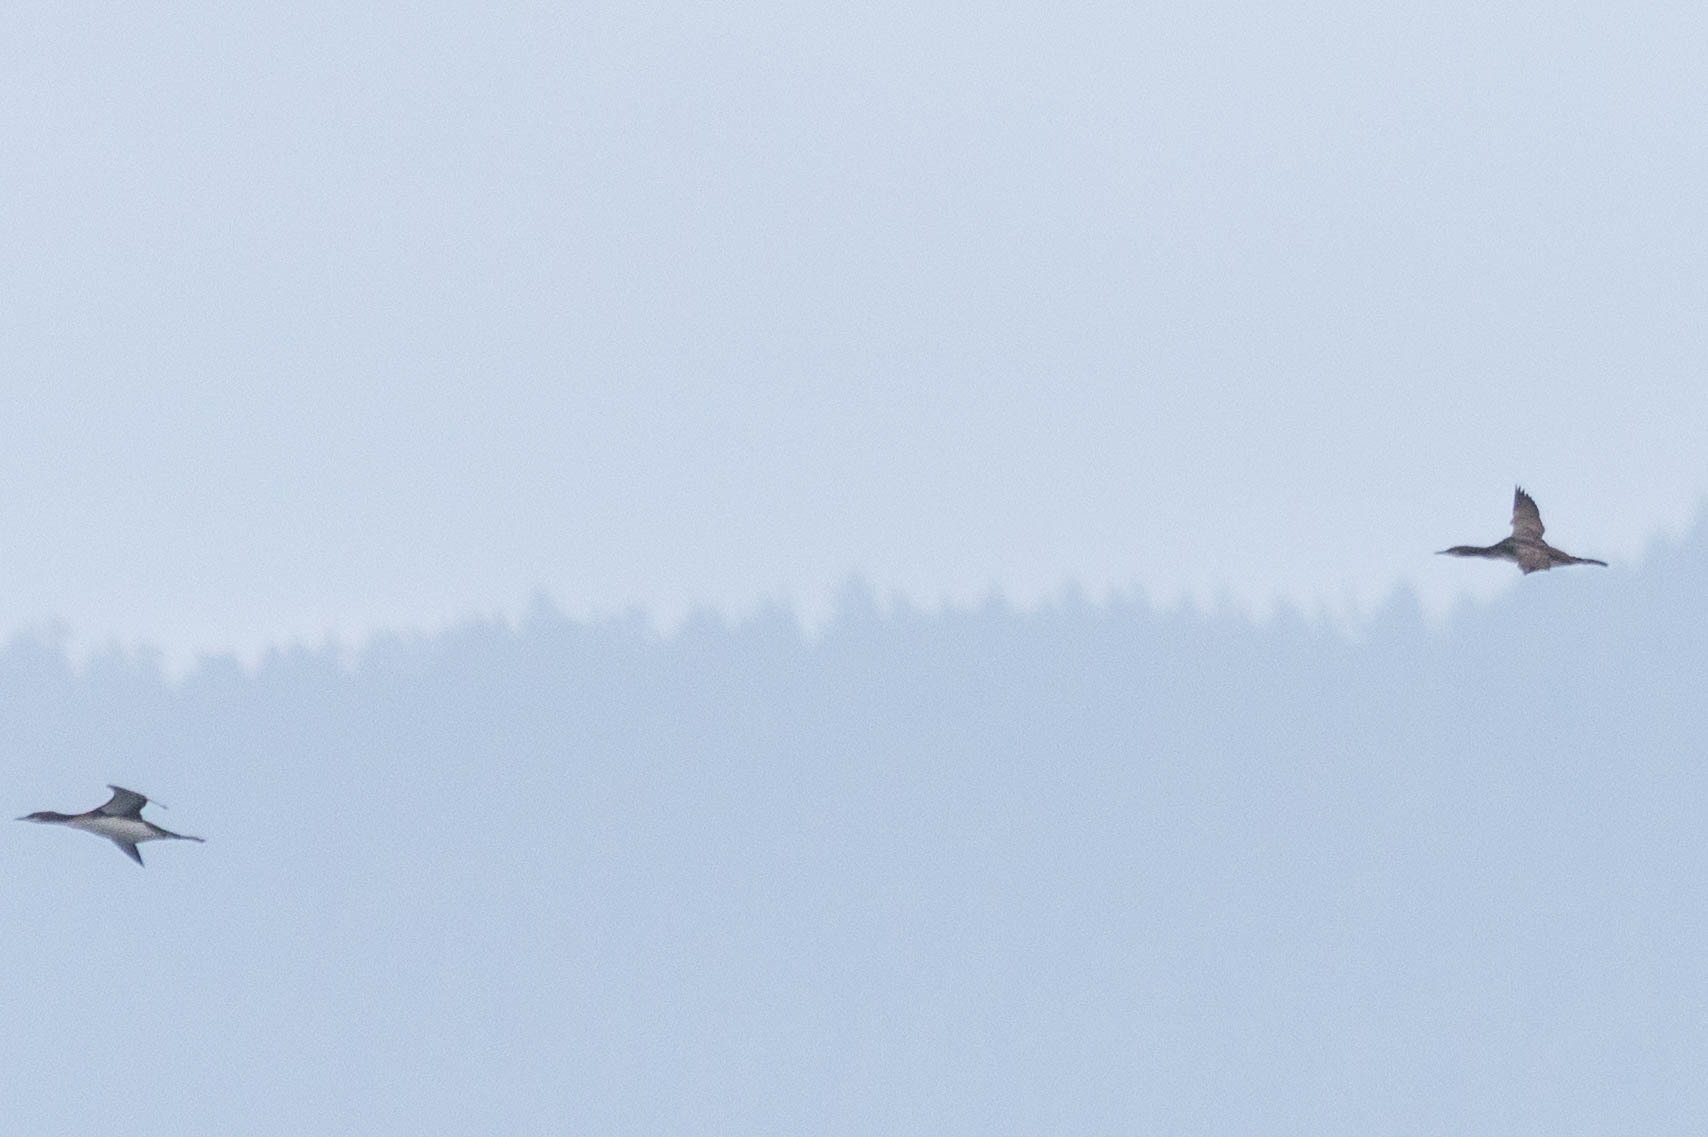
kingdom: Animalia
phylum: Chordata
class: Aves
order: Gaviiformes
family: Gaviidae
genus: Gavia
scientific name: Gavia pacifica
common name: Pacific loon
